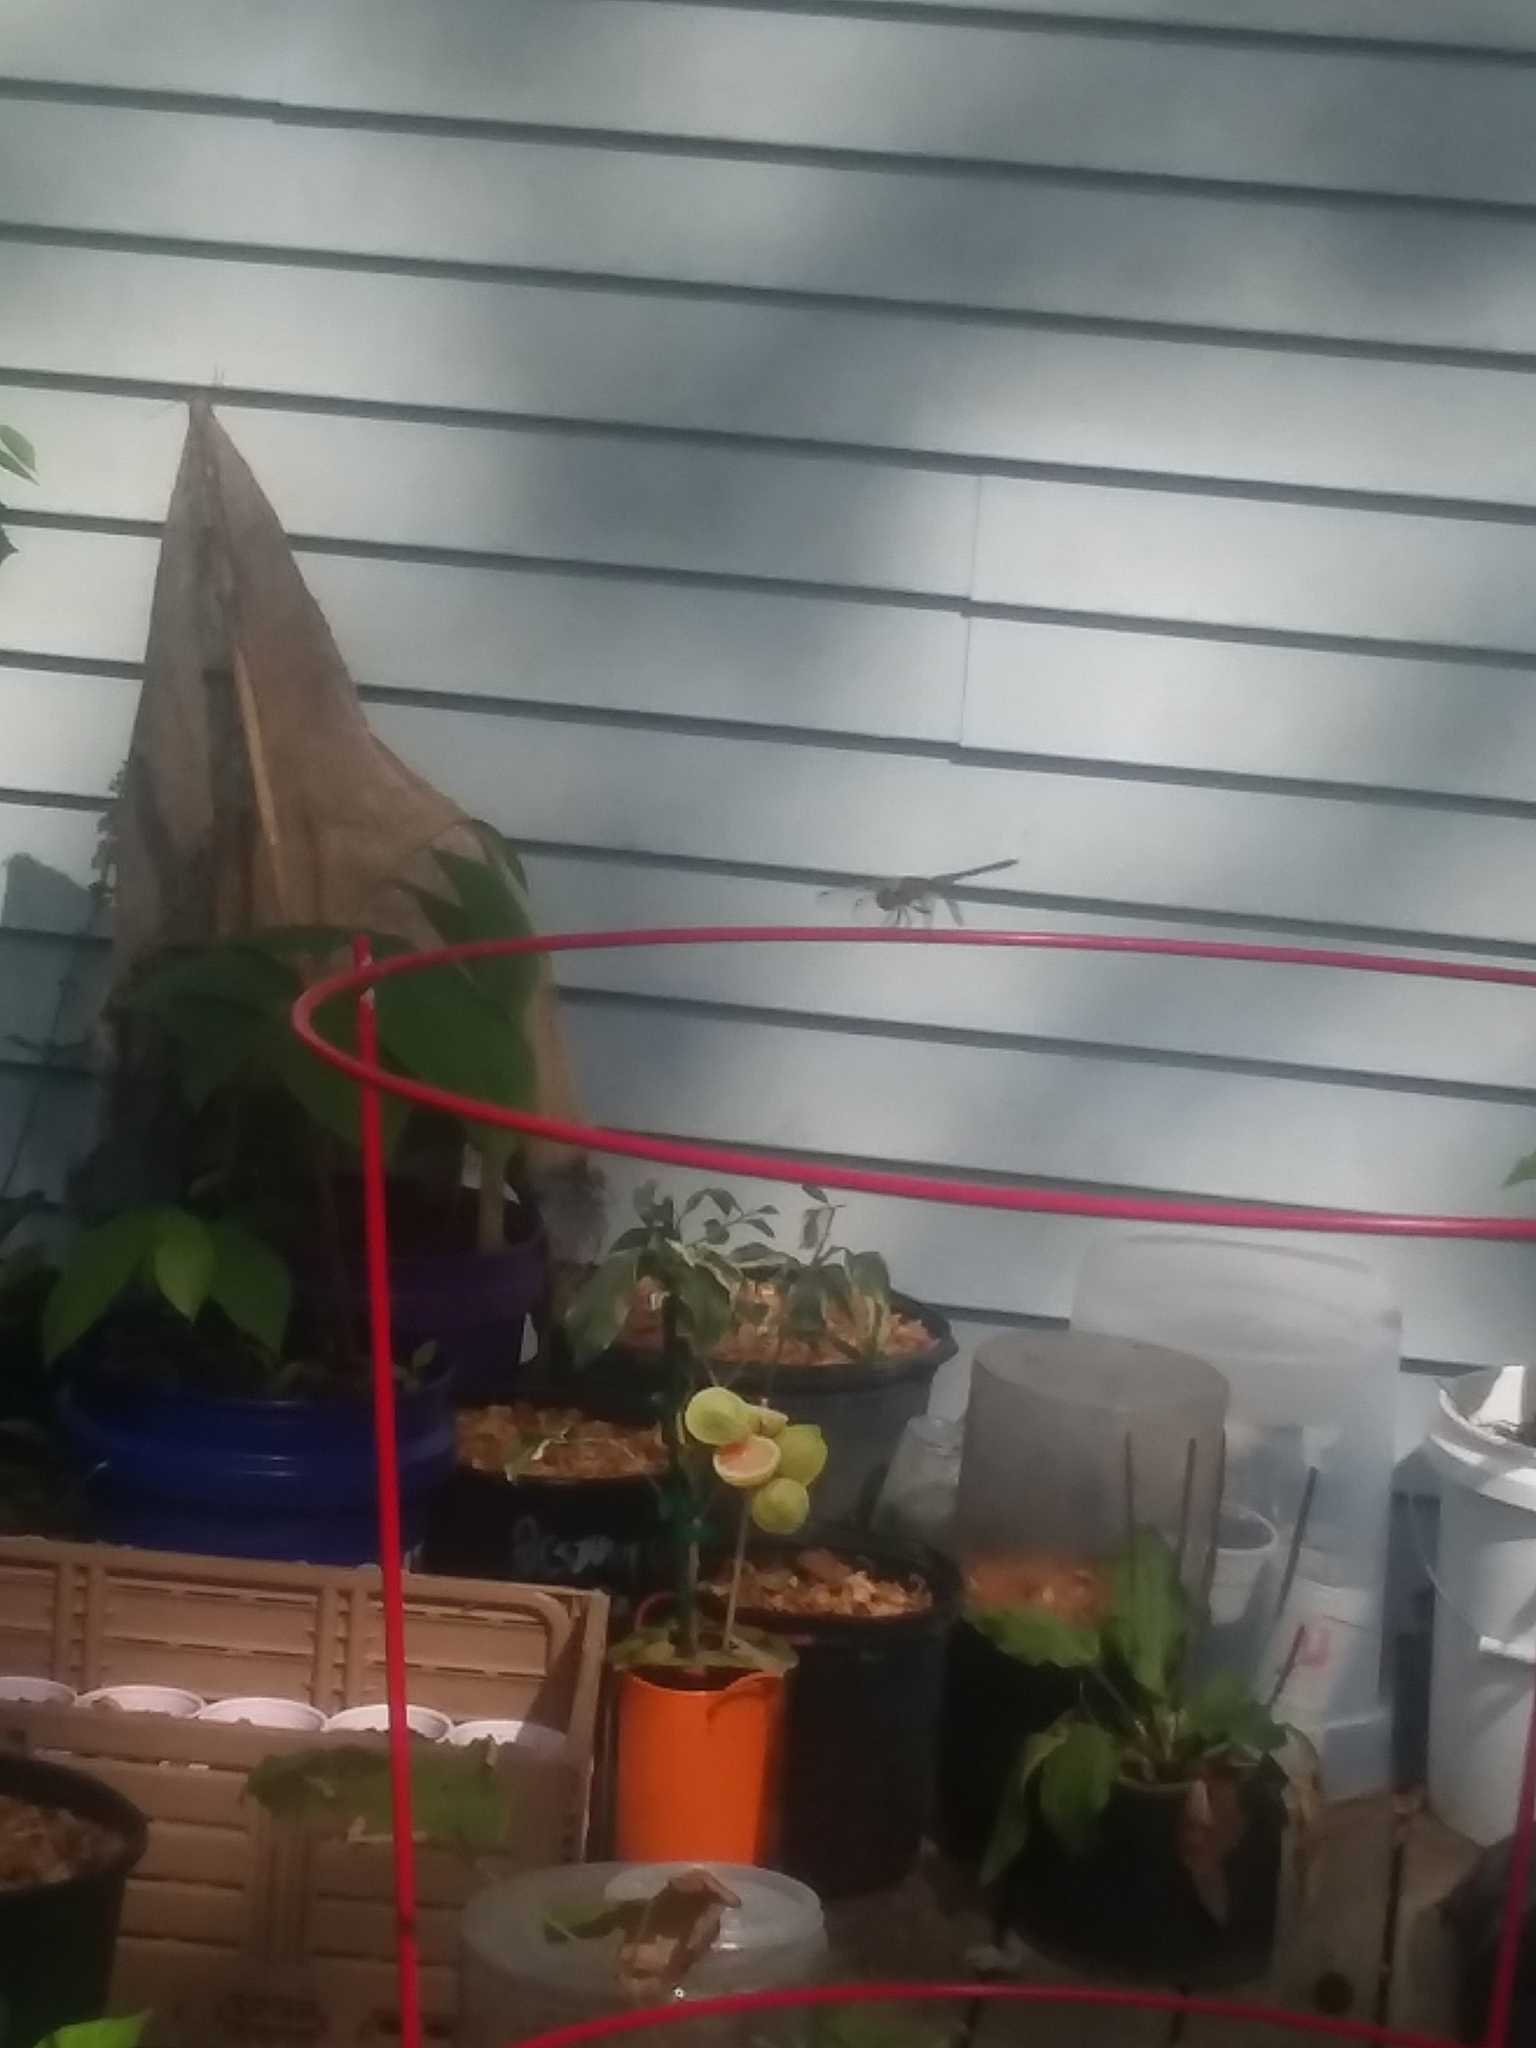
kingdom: Animalia
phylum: Arthropoda
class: Insecta
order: Odonata
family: Libellulidae
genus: Pachydiplax
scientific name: Pachydiplax longipennis
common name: Blue dasher
